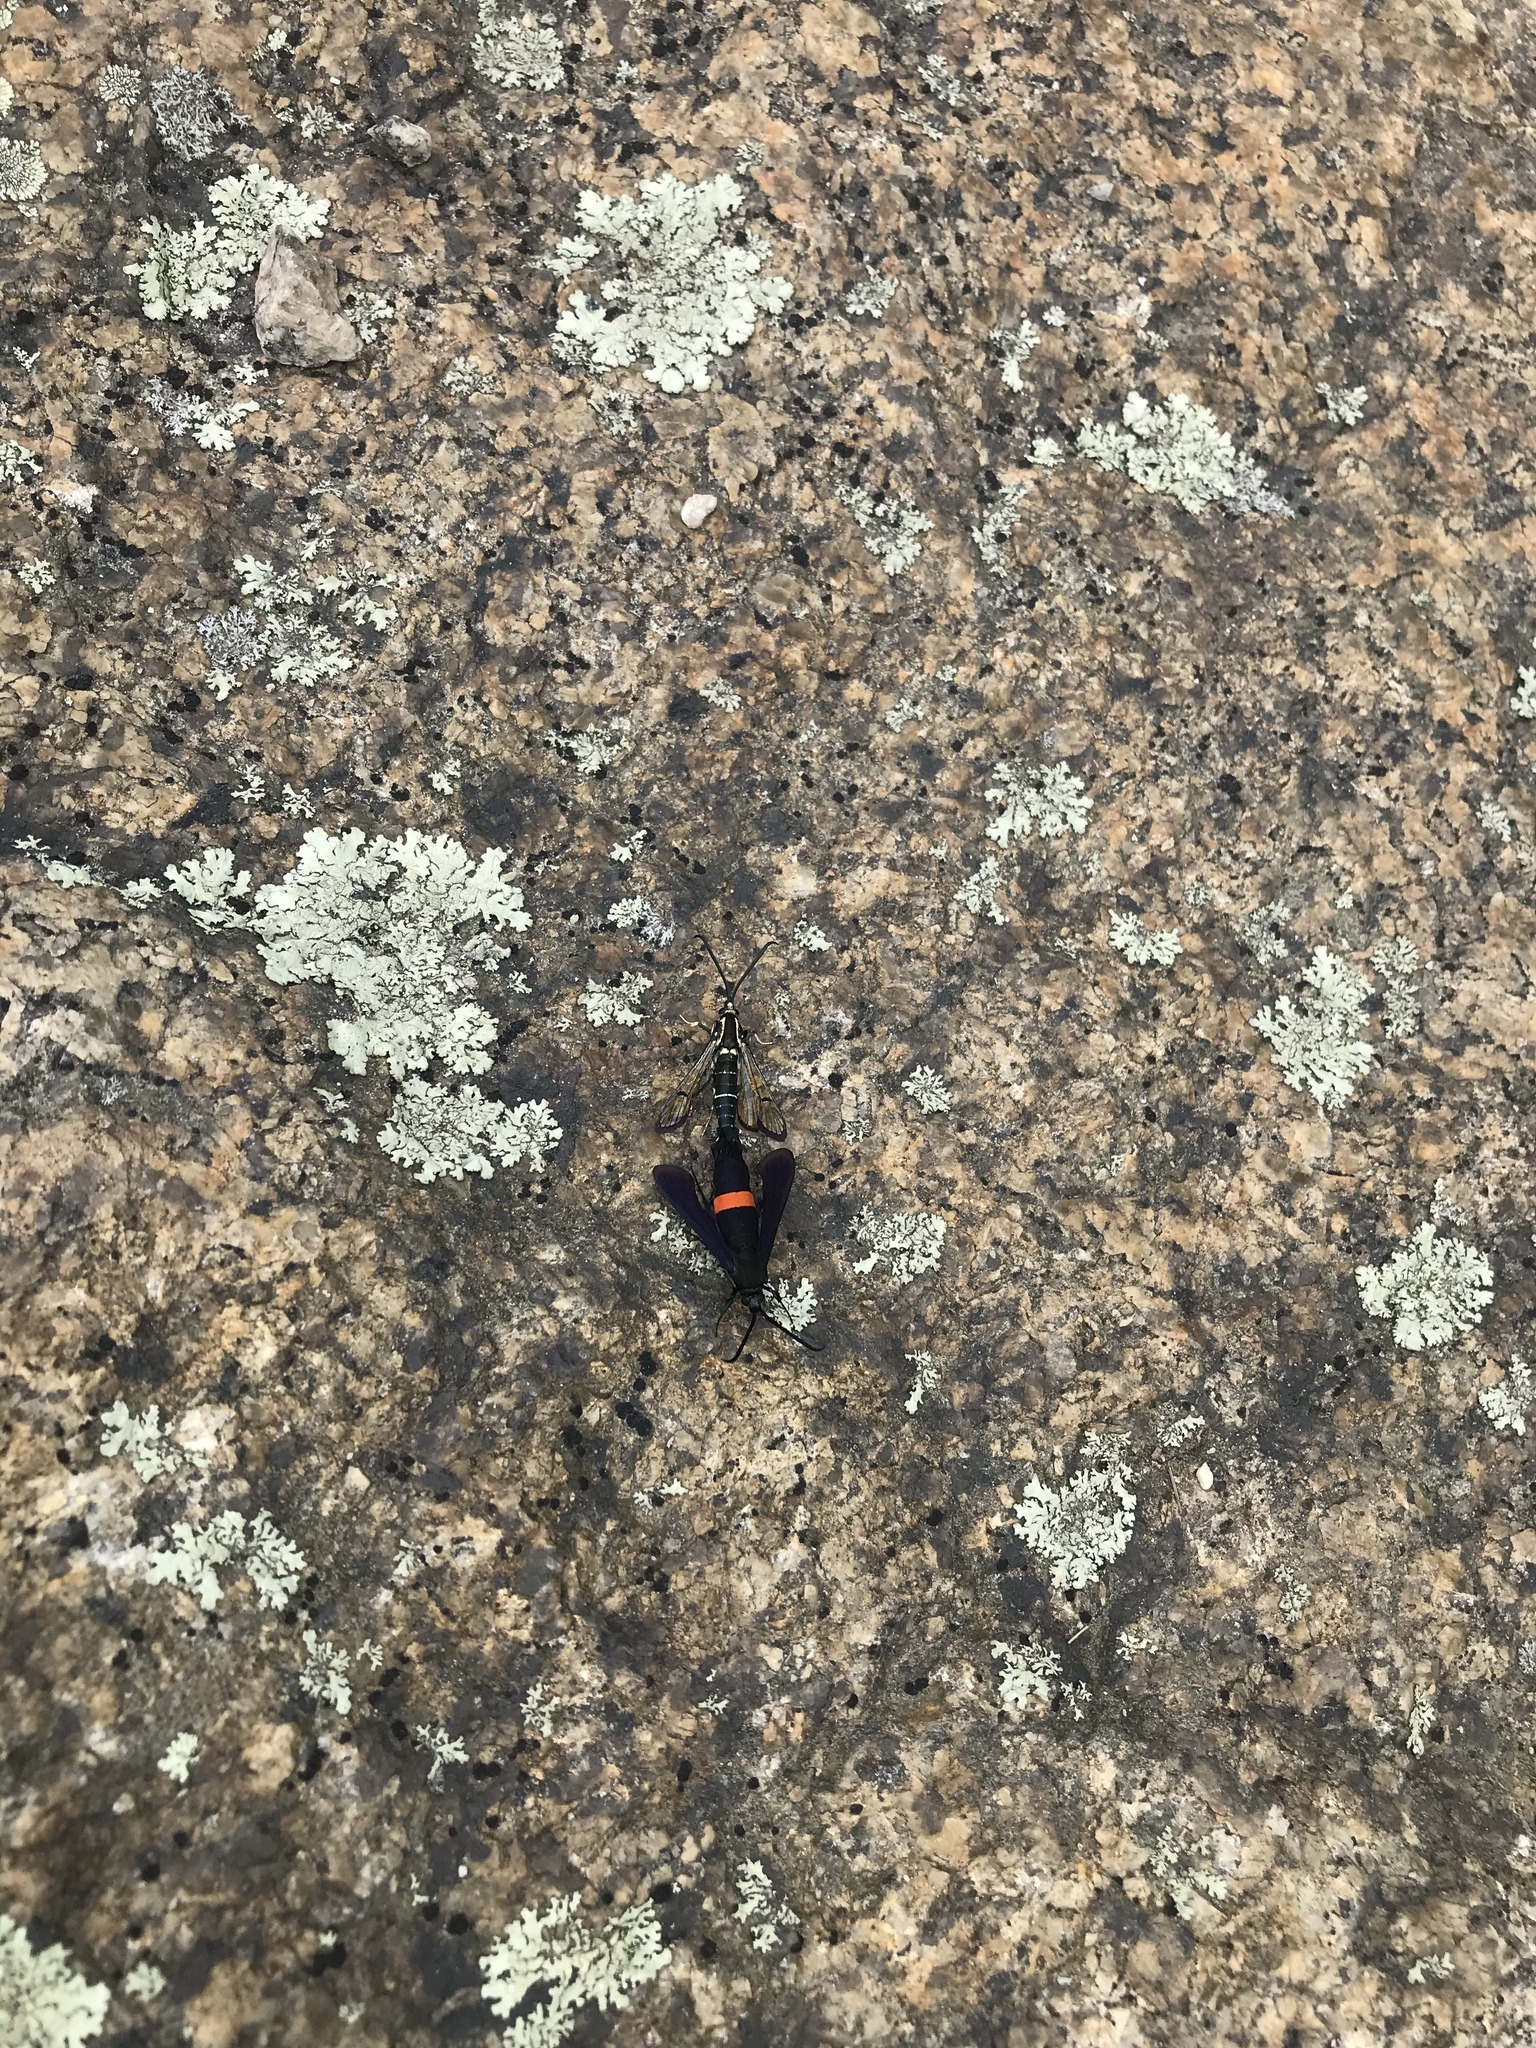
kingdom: Animalia
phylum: Arthropoda
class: Insecta
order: Lepidoptera
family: Sesiidae
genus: Synanthedon
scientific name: Synanthedon exitiosa
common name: Peachtree borer moth
